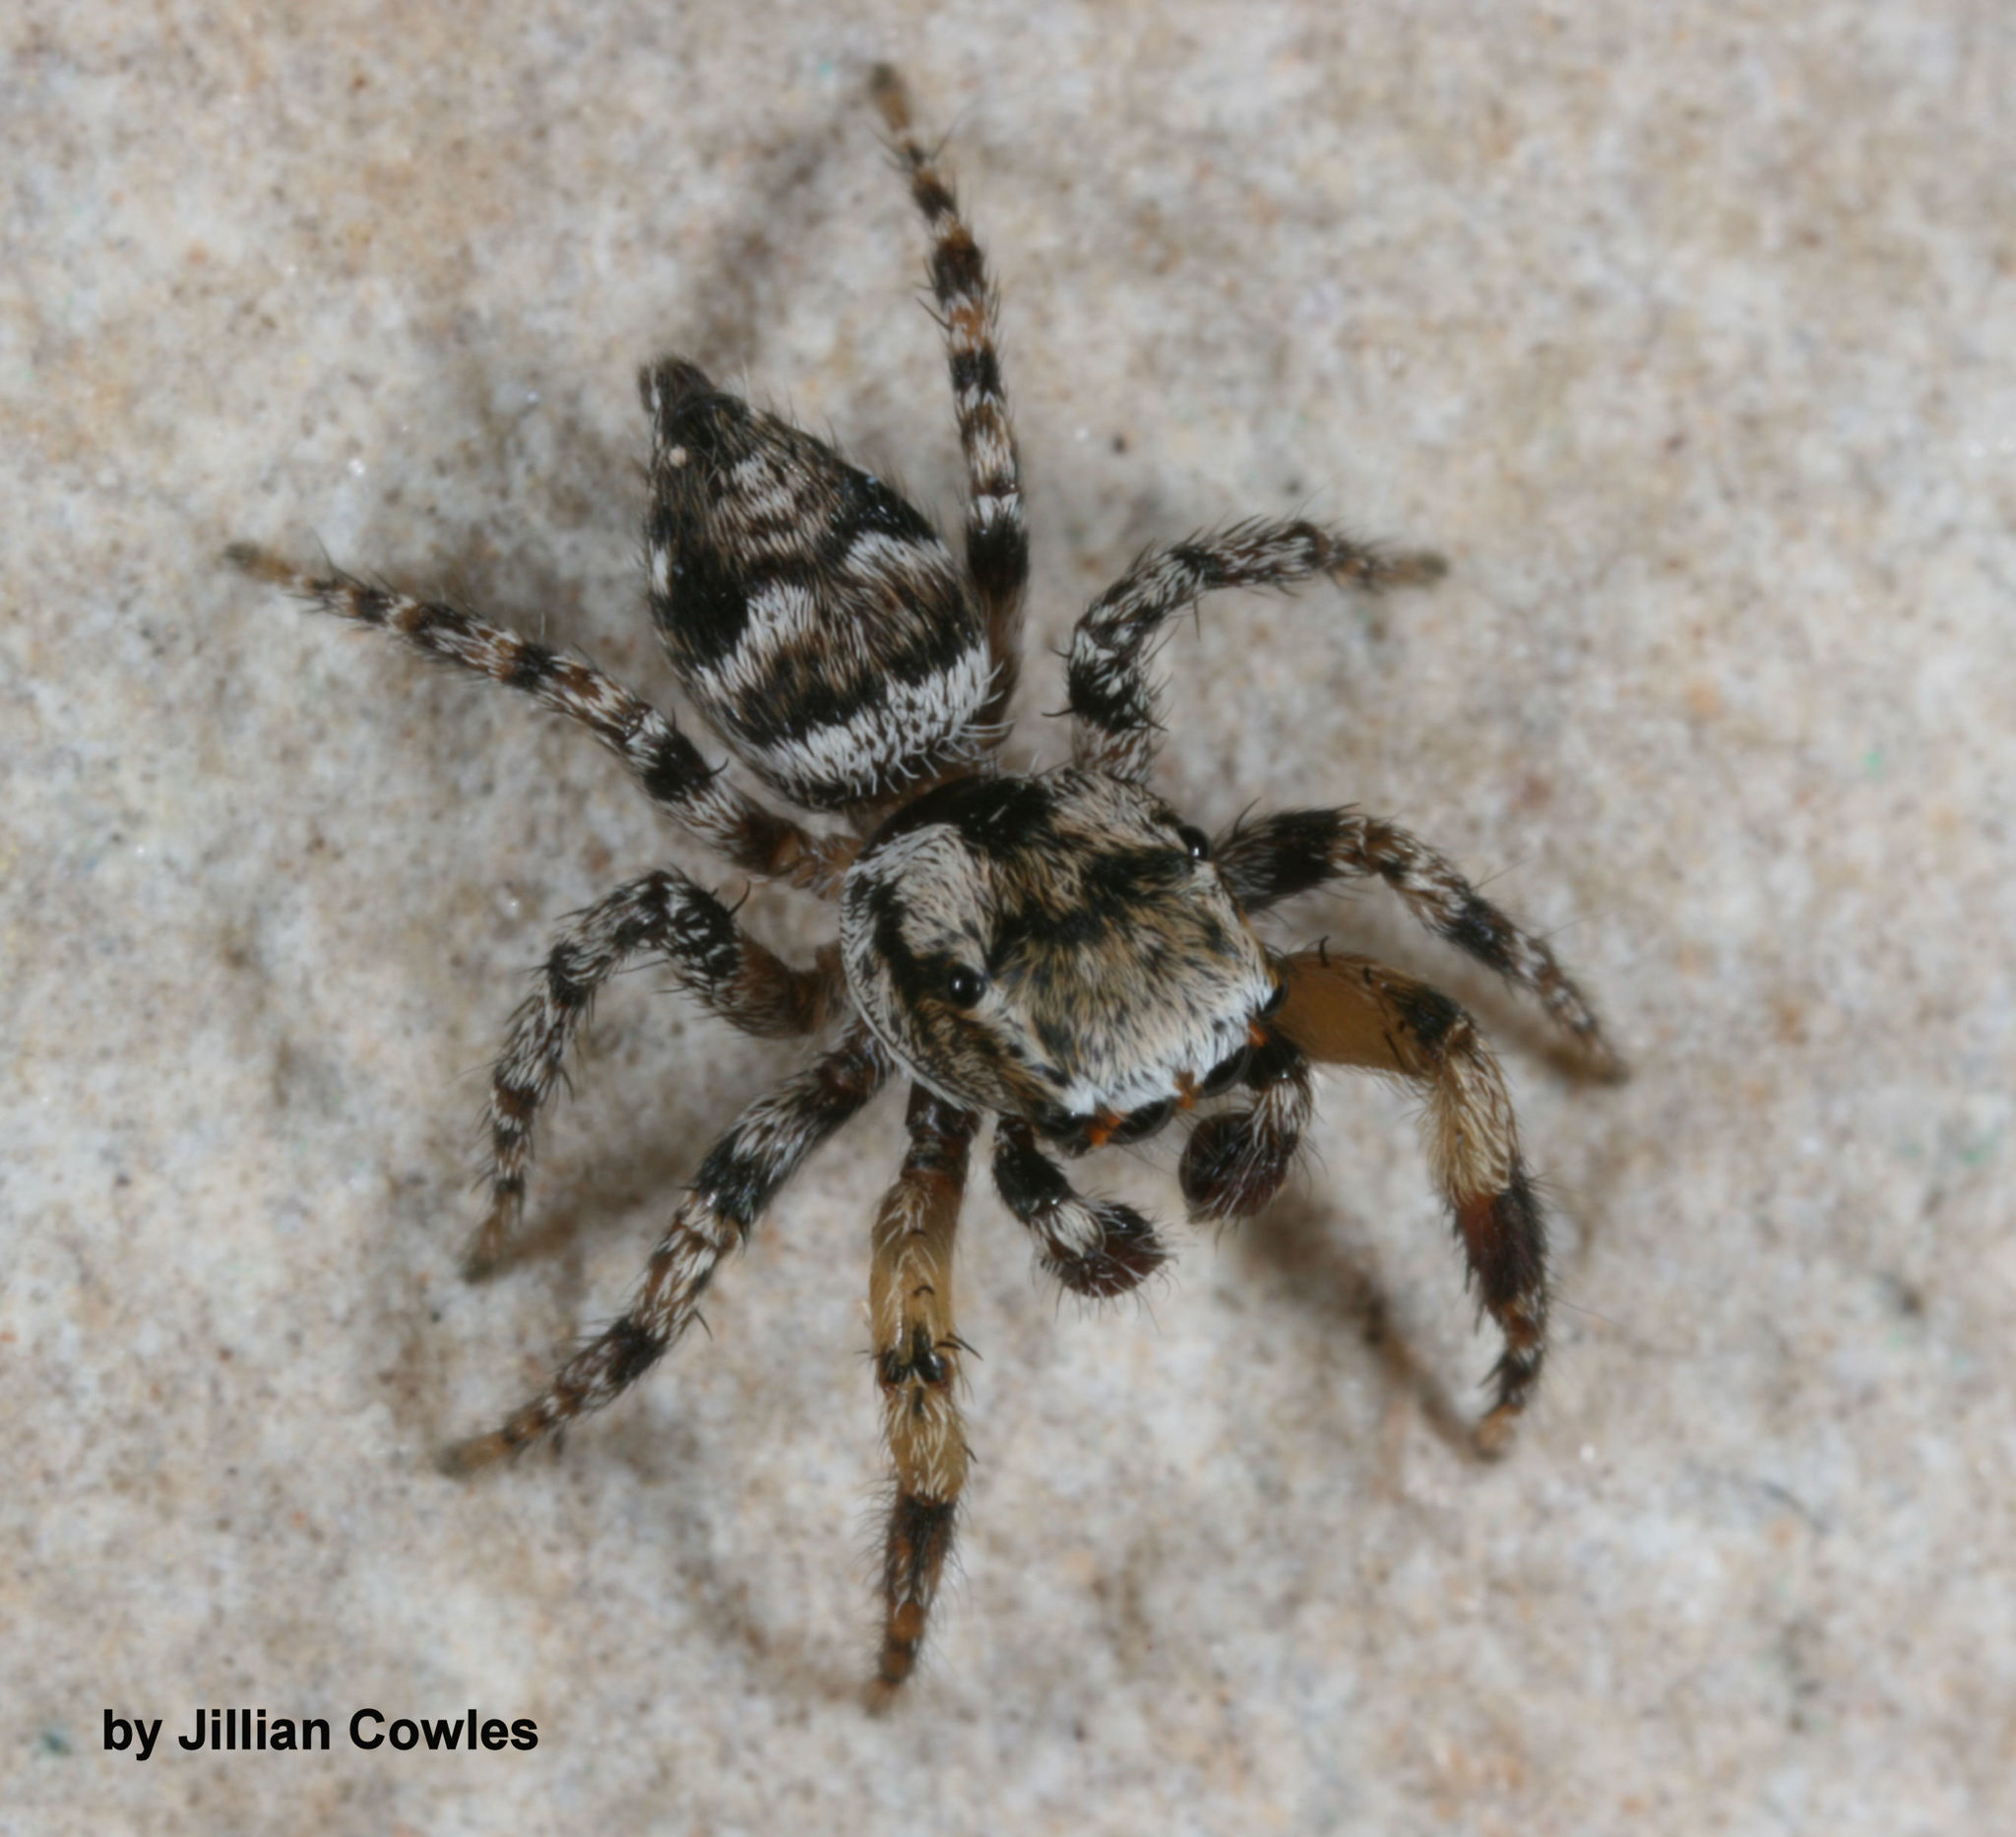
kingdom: Animalia
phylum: Arthropoda
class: Arachnida
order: Araneae
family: Salticidae
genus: Habronattus
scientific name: Habronattus geronimoi
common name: Jumping spiders
